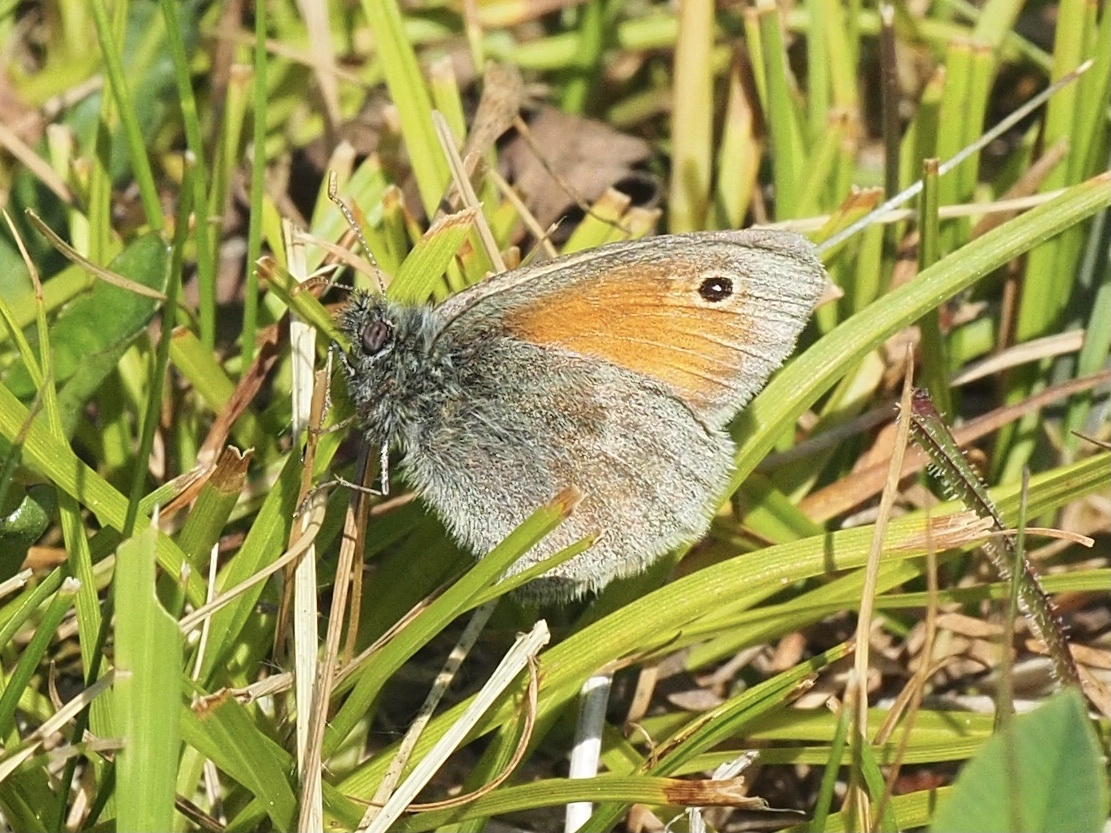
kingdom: Animalia
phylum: Arthropoda
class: Insecta
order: Lepidoptera
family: Nymphalidae
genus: Coenonympha
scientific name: Coenonympha pamphilus
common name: Small heath
